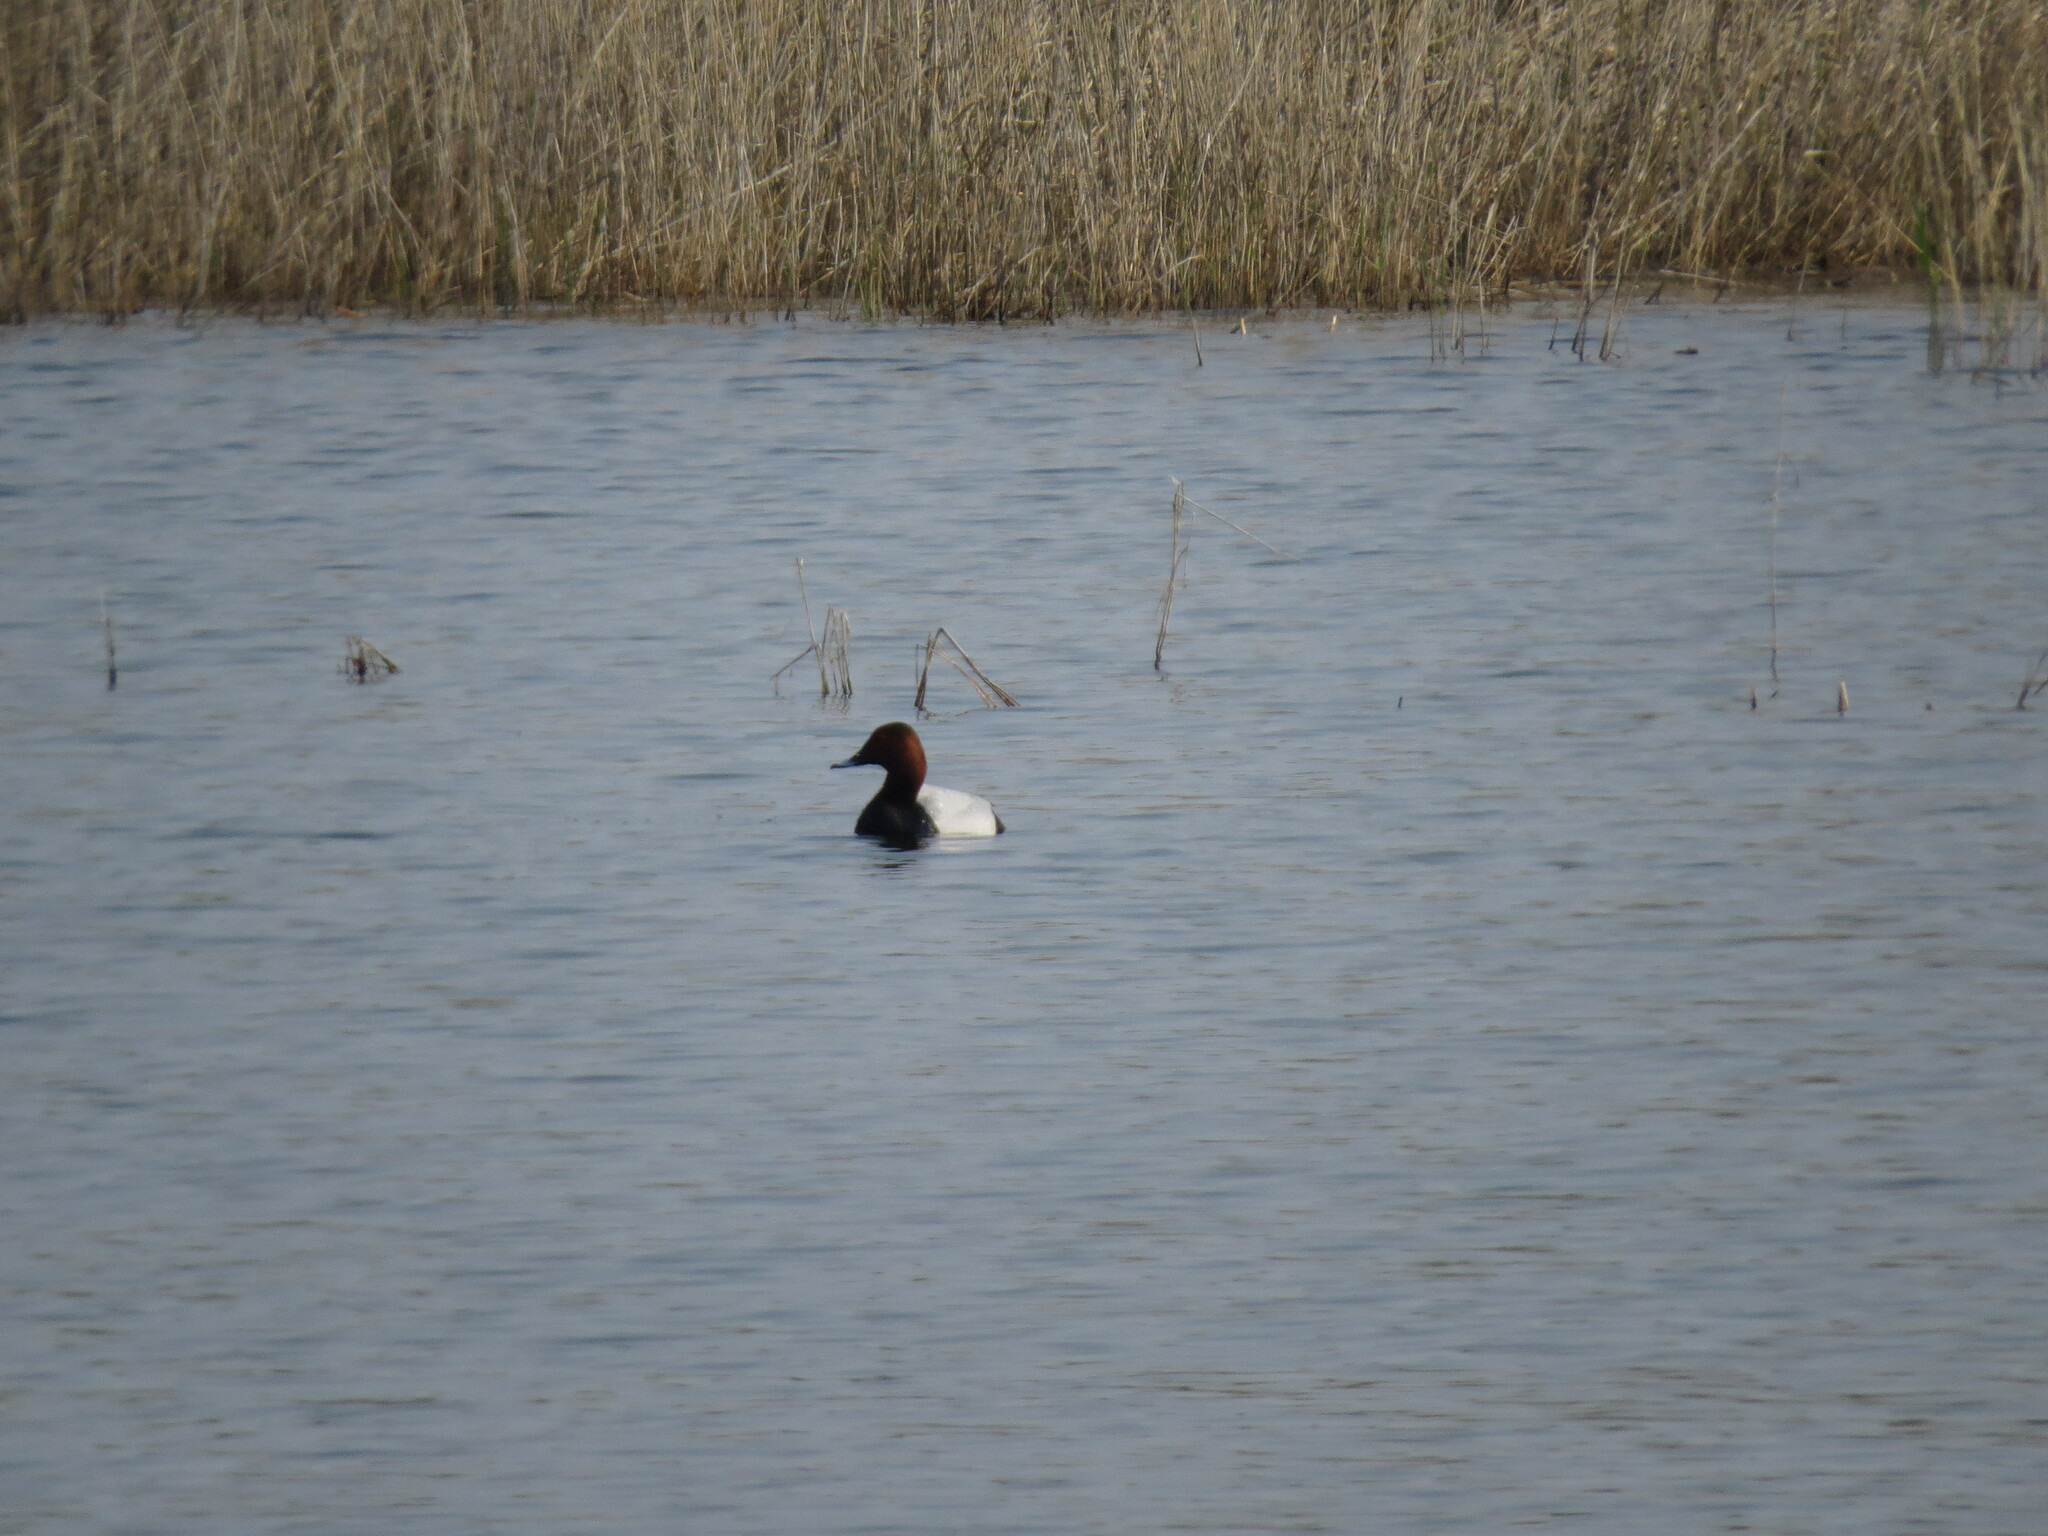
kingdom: Animalia
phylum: Chordata
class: Aves
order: Anseriformes
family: Anatidae
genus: Aythya
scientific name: Aythya ferina
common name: Common pochard
